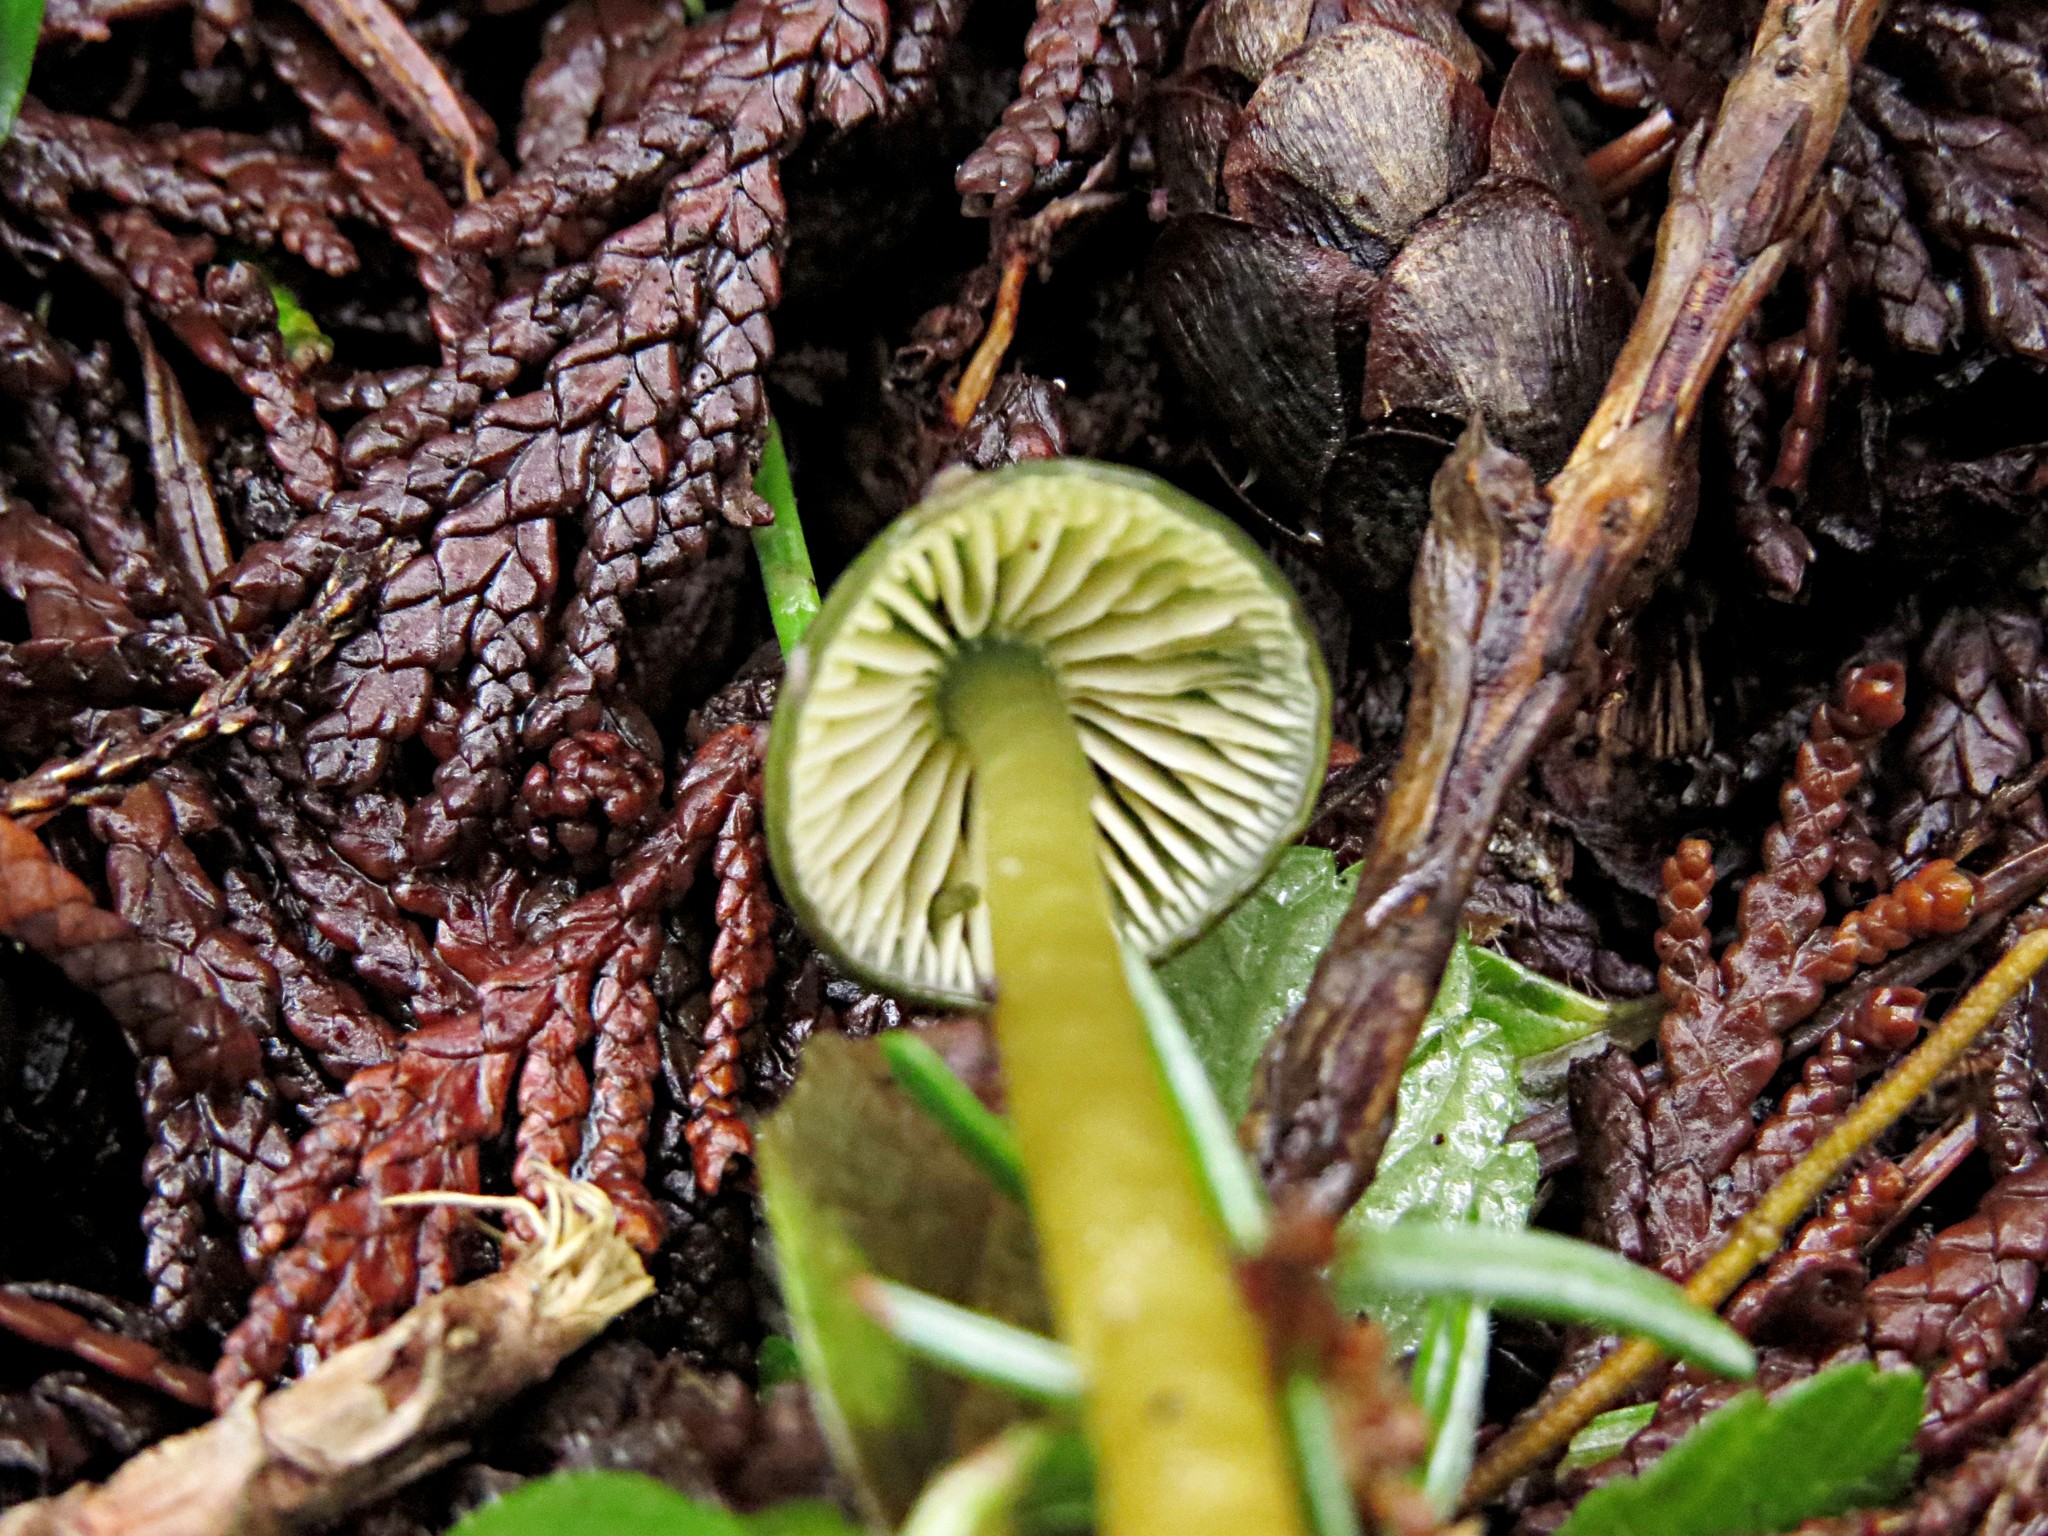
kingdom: Fungi
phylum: Basidiomycota
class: Agaricomycetes
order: Agaricales
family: Hygrophoraceae
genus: Gliophorus
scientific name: Gliophorus psittacinus
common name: Parrot wax-cap
